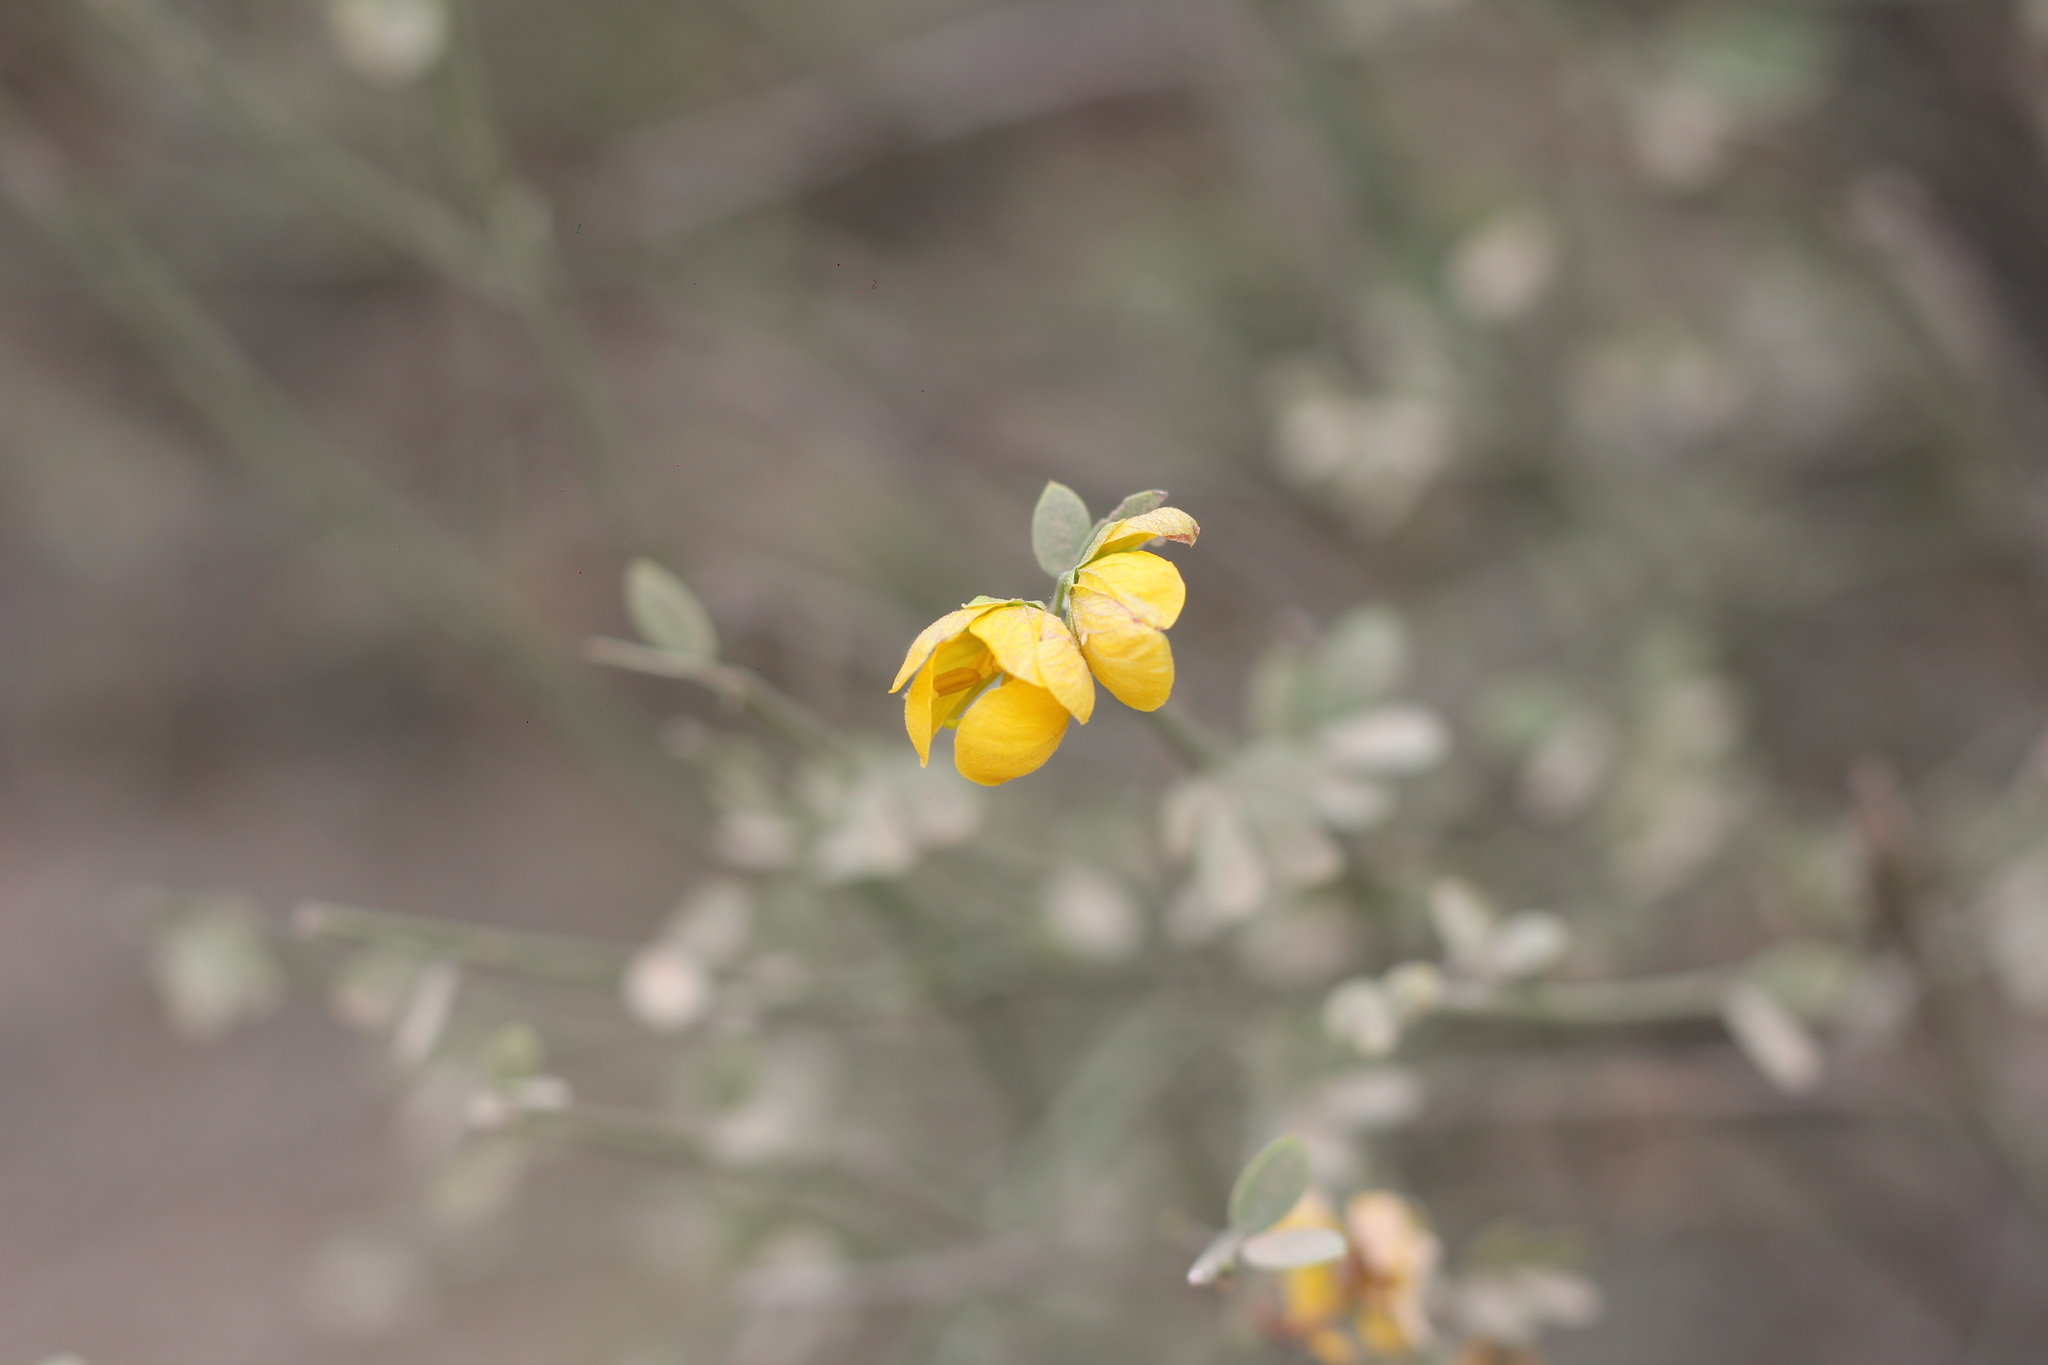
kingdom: Plantae
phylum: Tracheophyta
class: Magnoliopsida
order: Fabales
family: Fabaceae
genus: Senna
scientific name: Senna chloroclada
